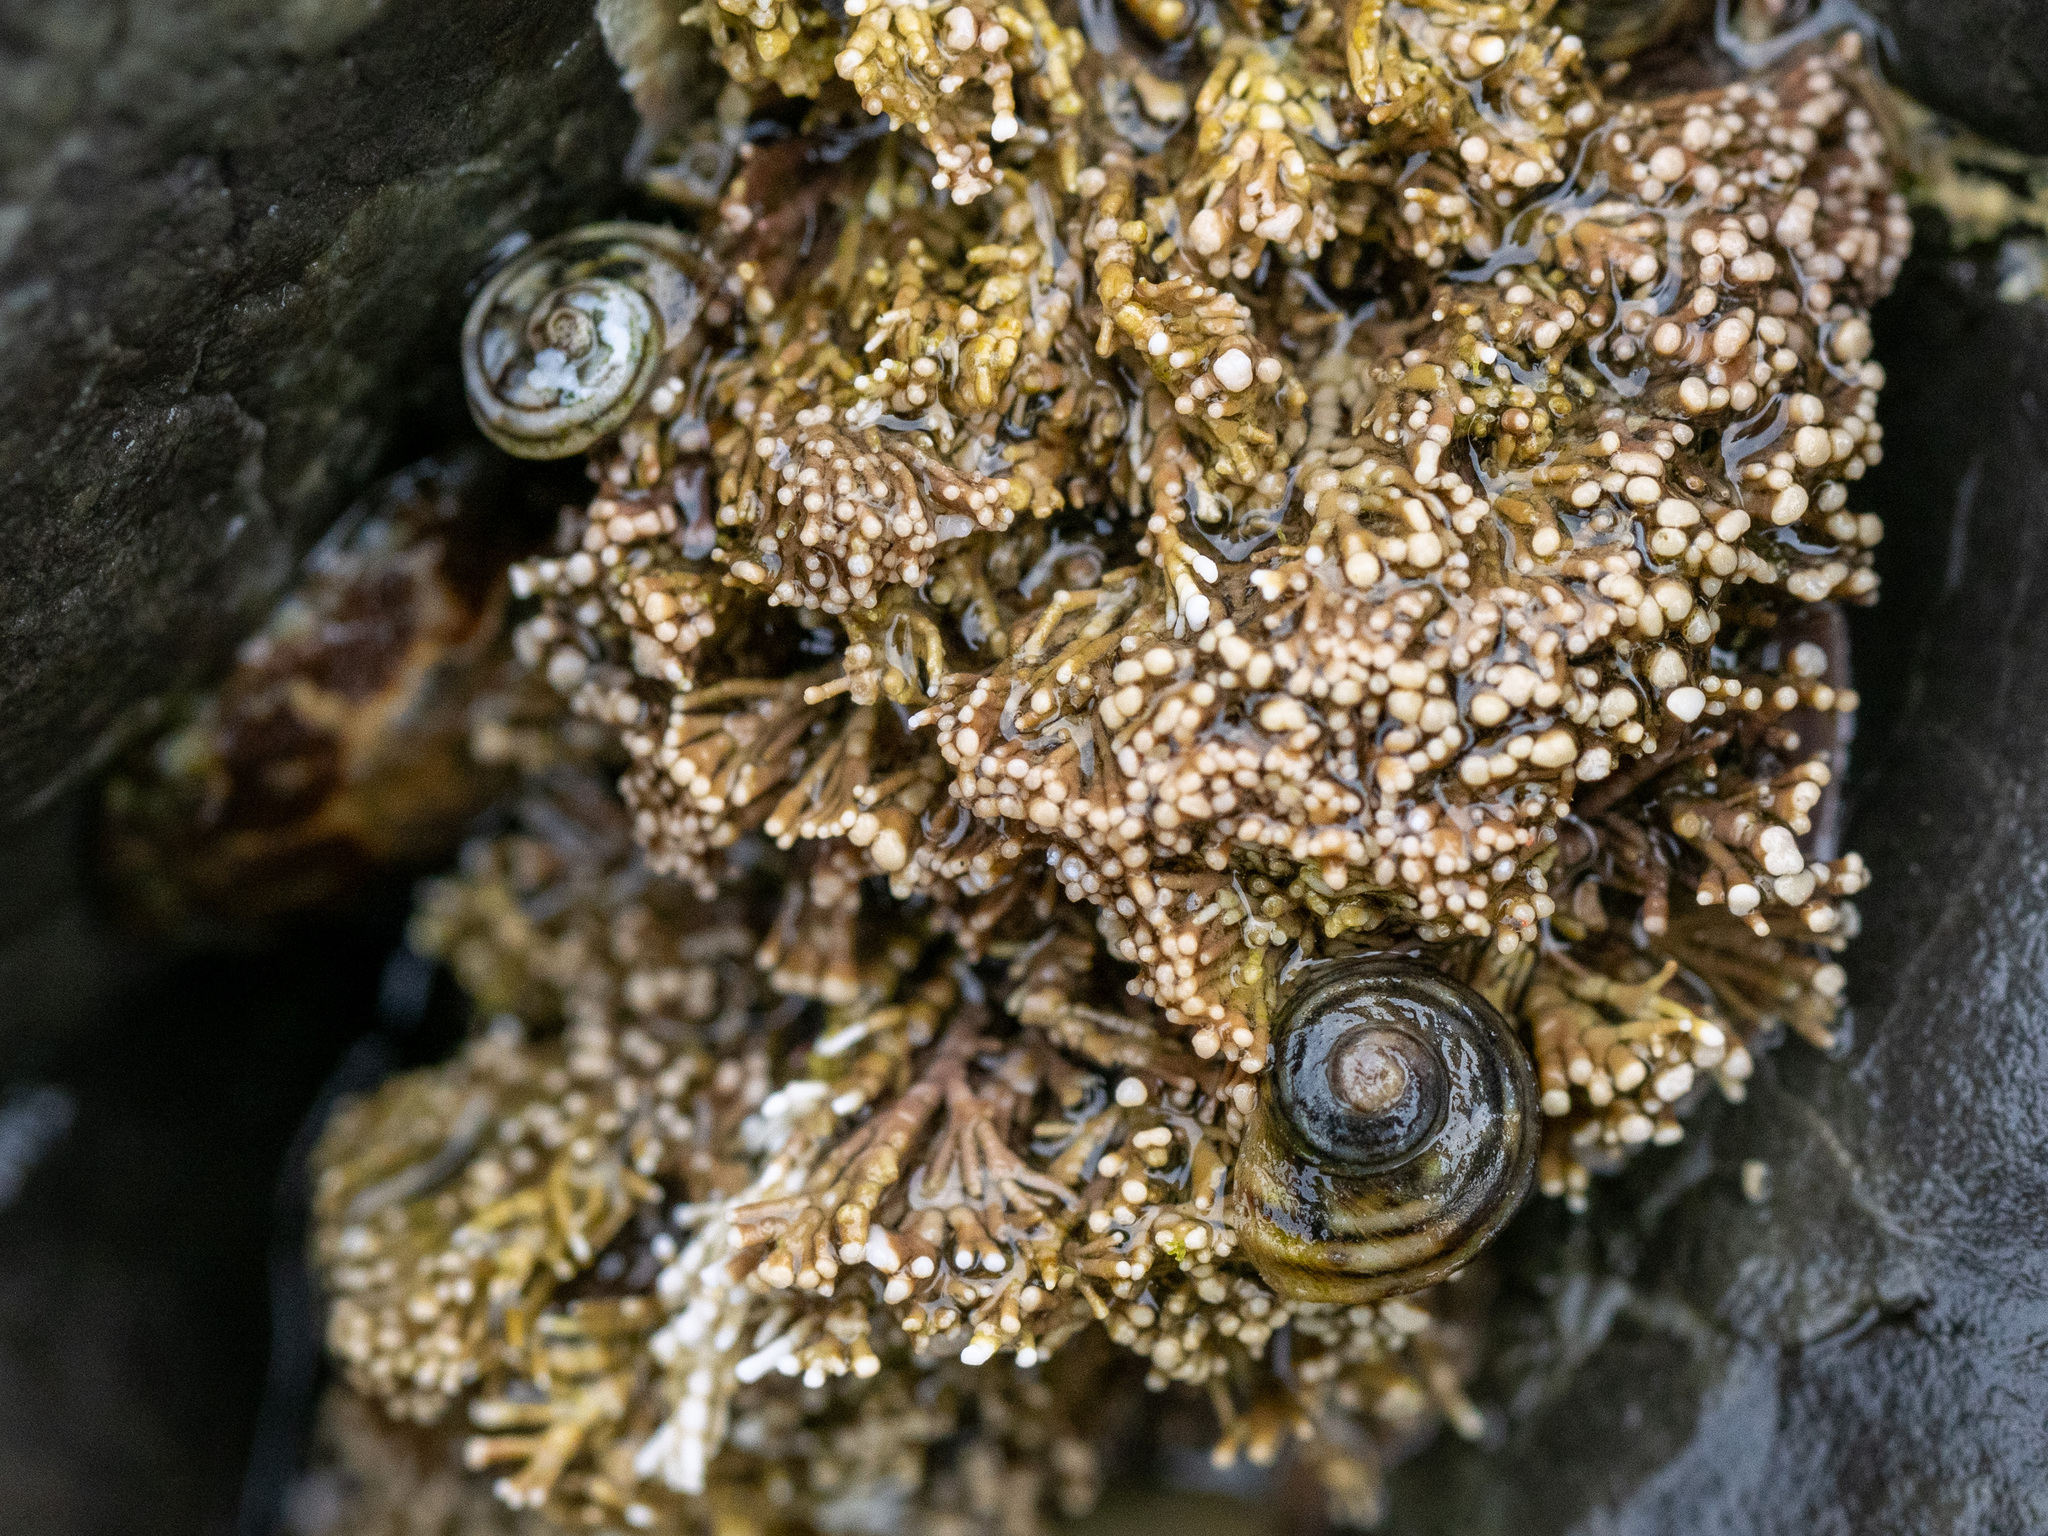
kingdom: Animalia
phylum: Mollusca
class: Gastropoda
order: Littorinimorpha
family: Littorinidae
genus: Risellopsis
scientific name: Risellopsis varia
